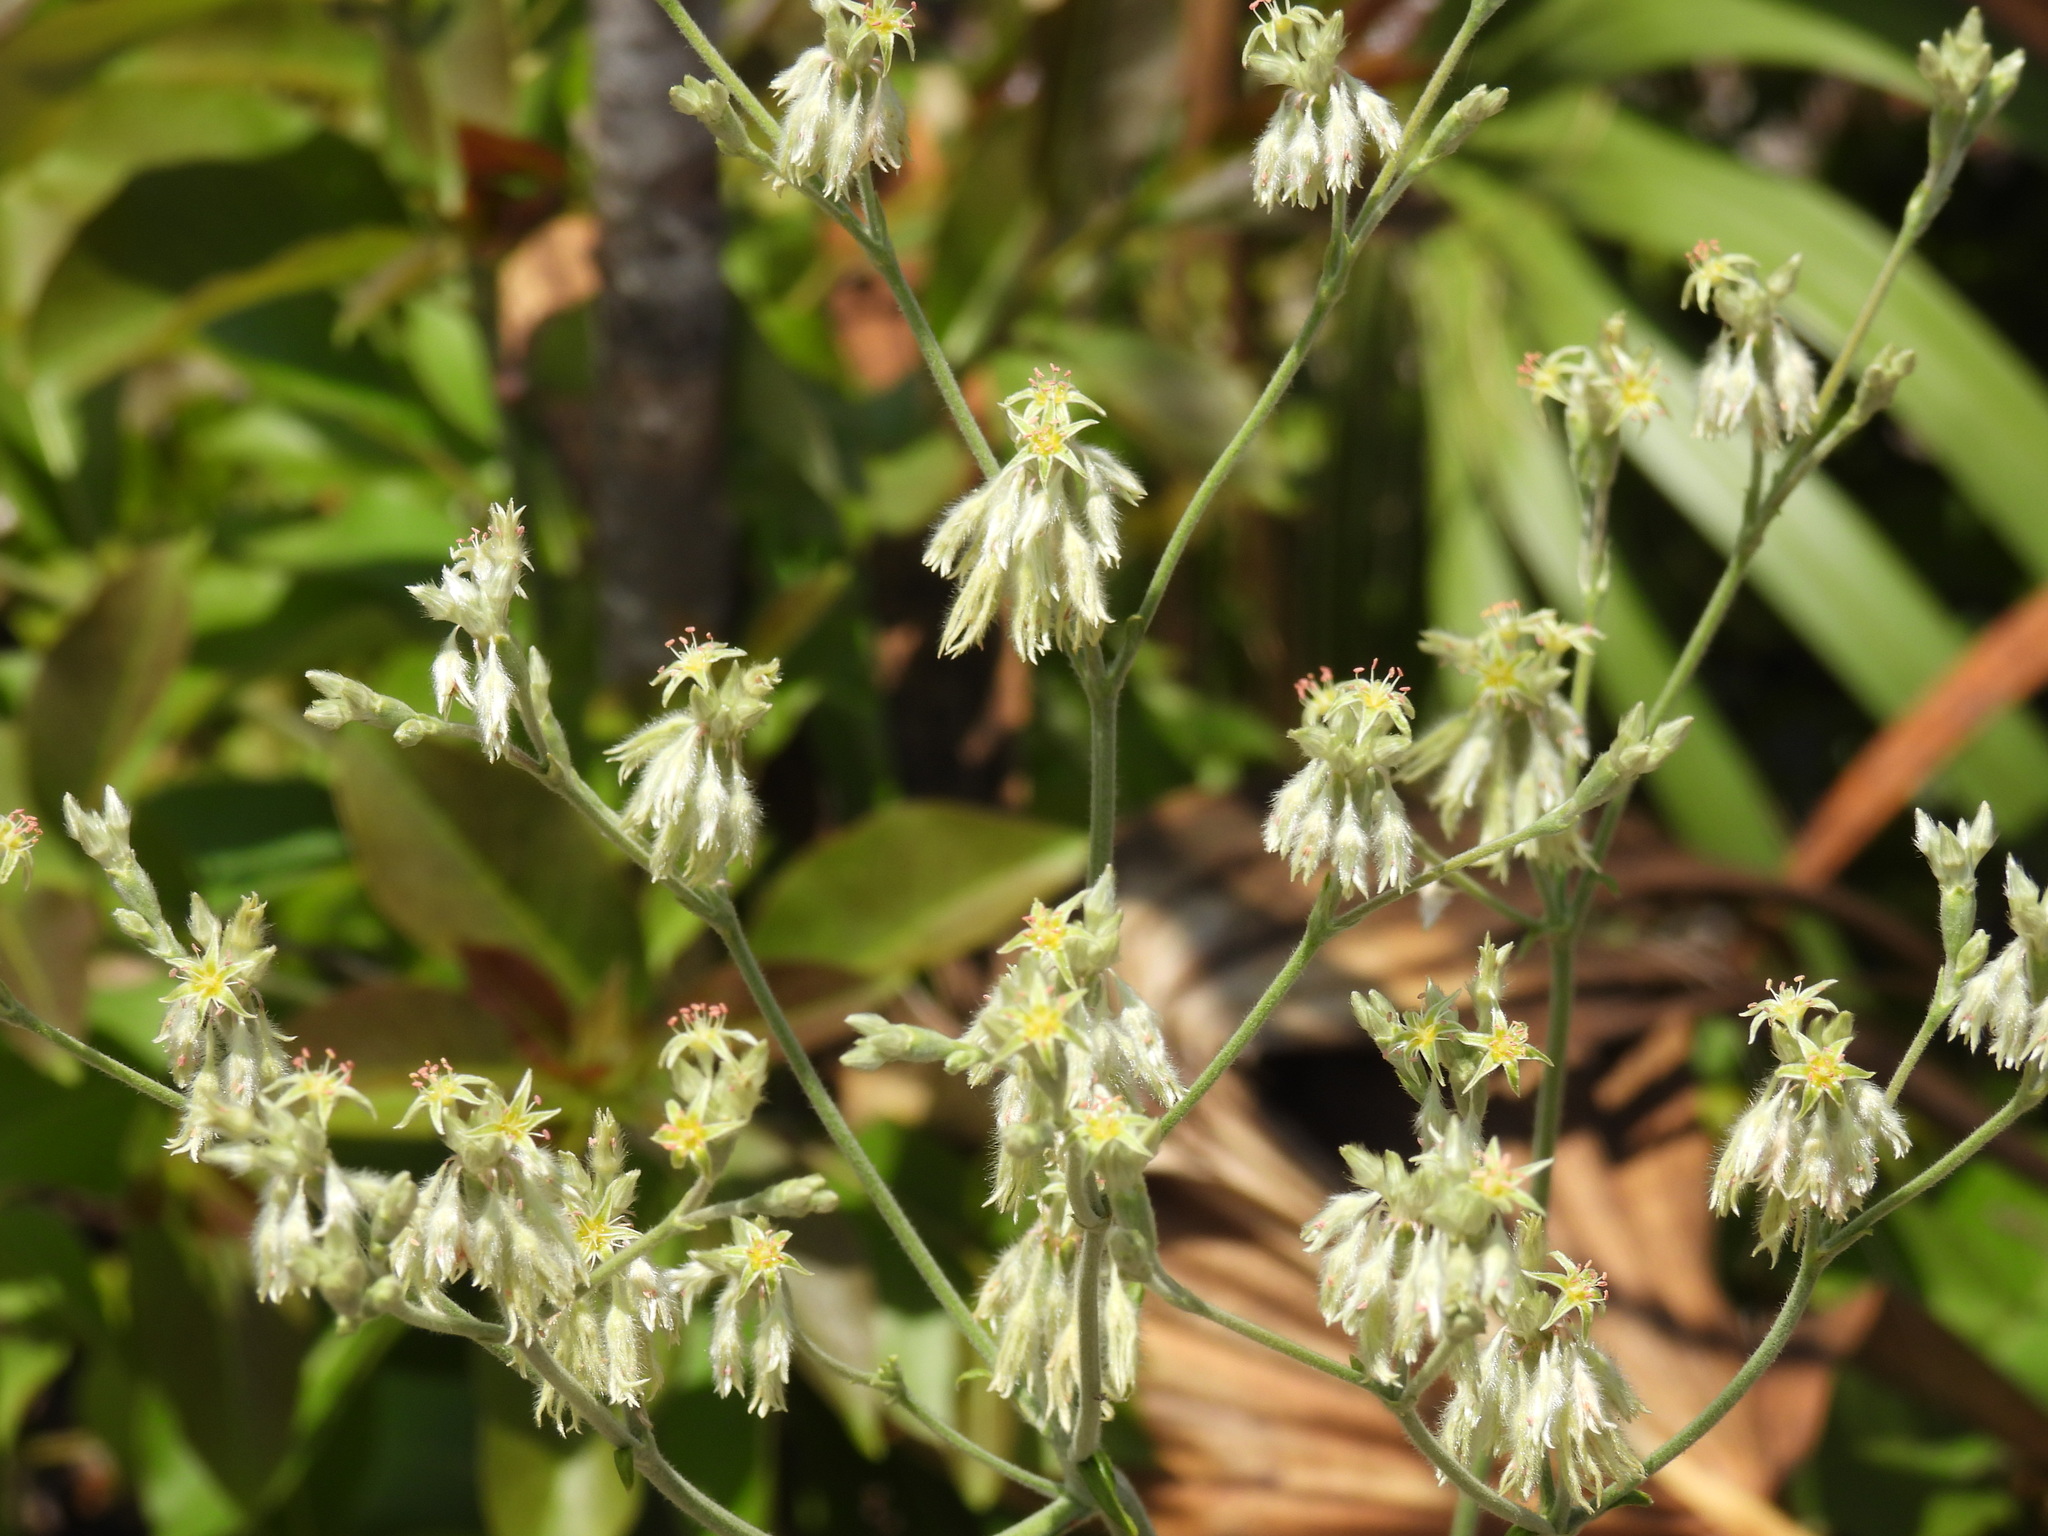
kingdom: Plantae
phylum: Tracheophyta
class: Magnoliopsida
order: Caryophyllales
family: Polygonaceae
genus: Eriogonum
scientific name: Eriogonum longifolium
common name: Longleaf wild buckwheat
